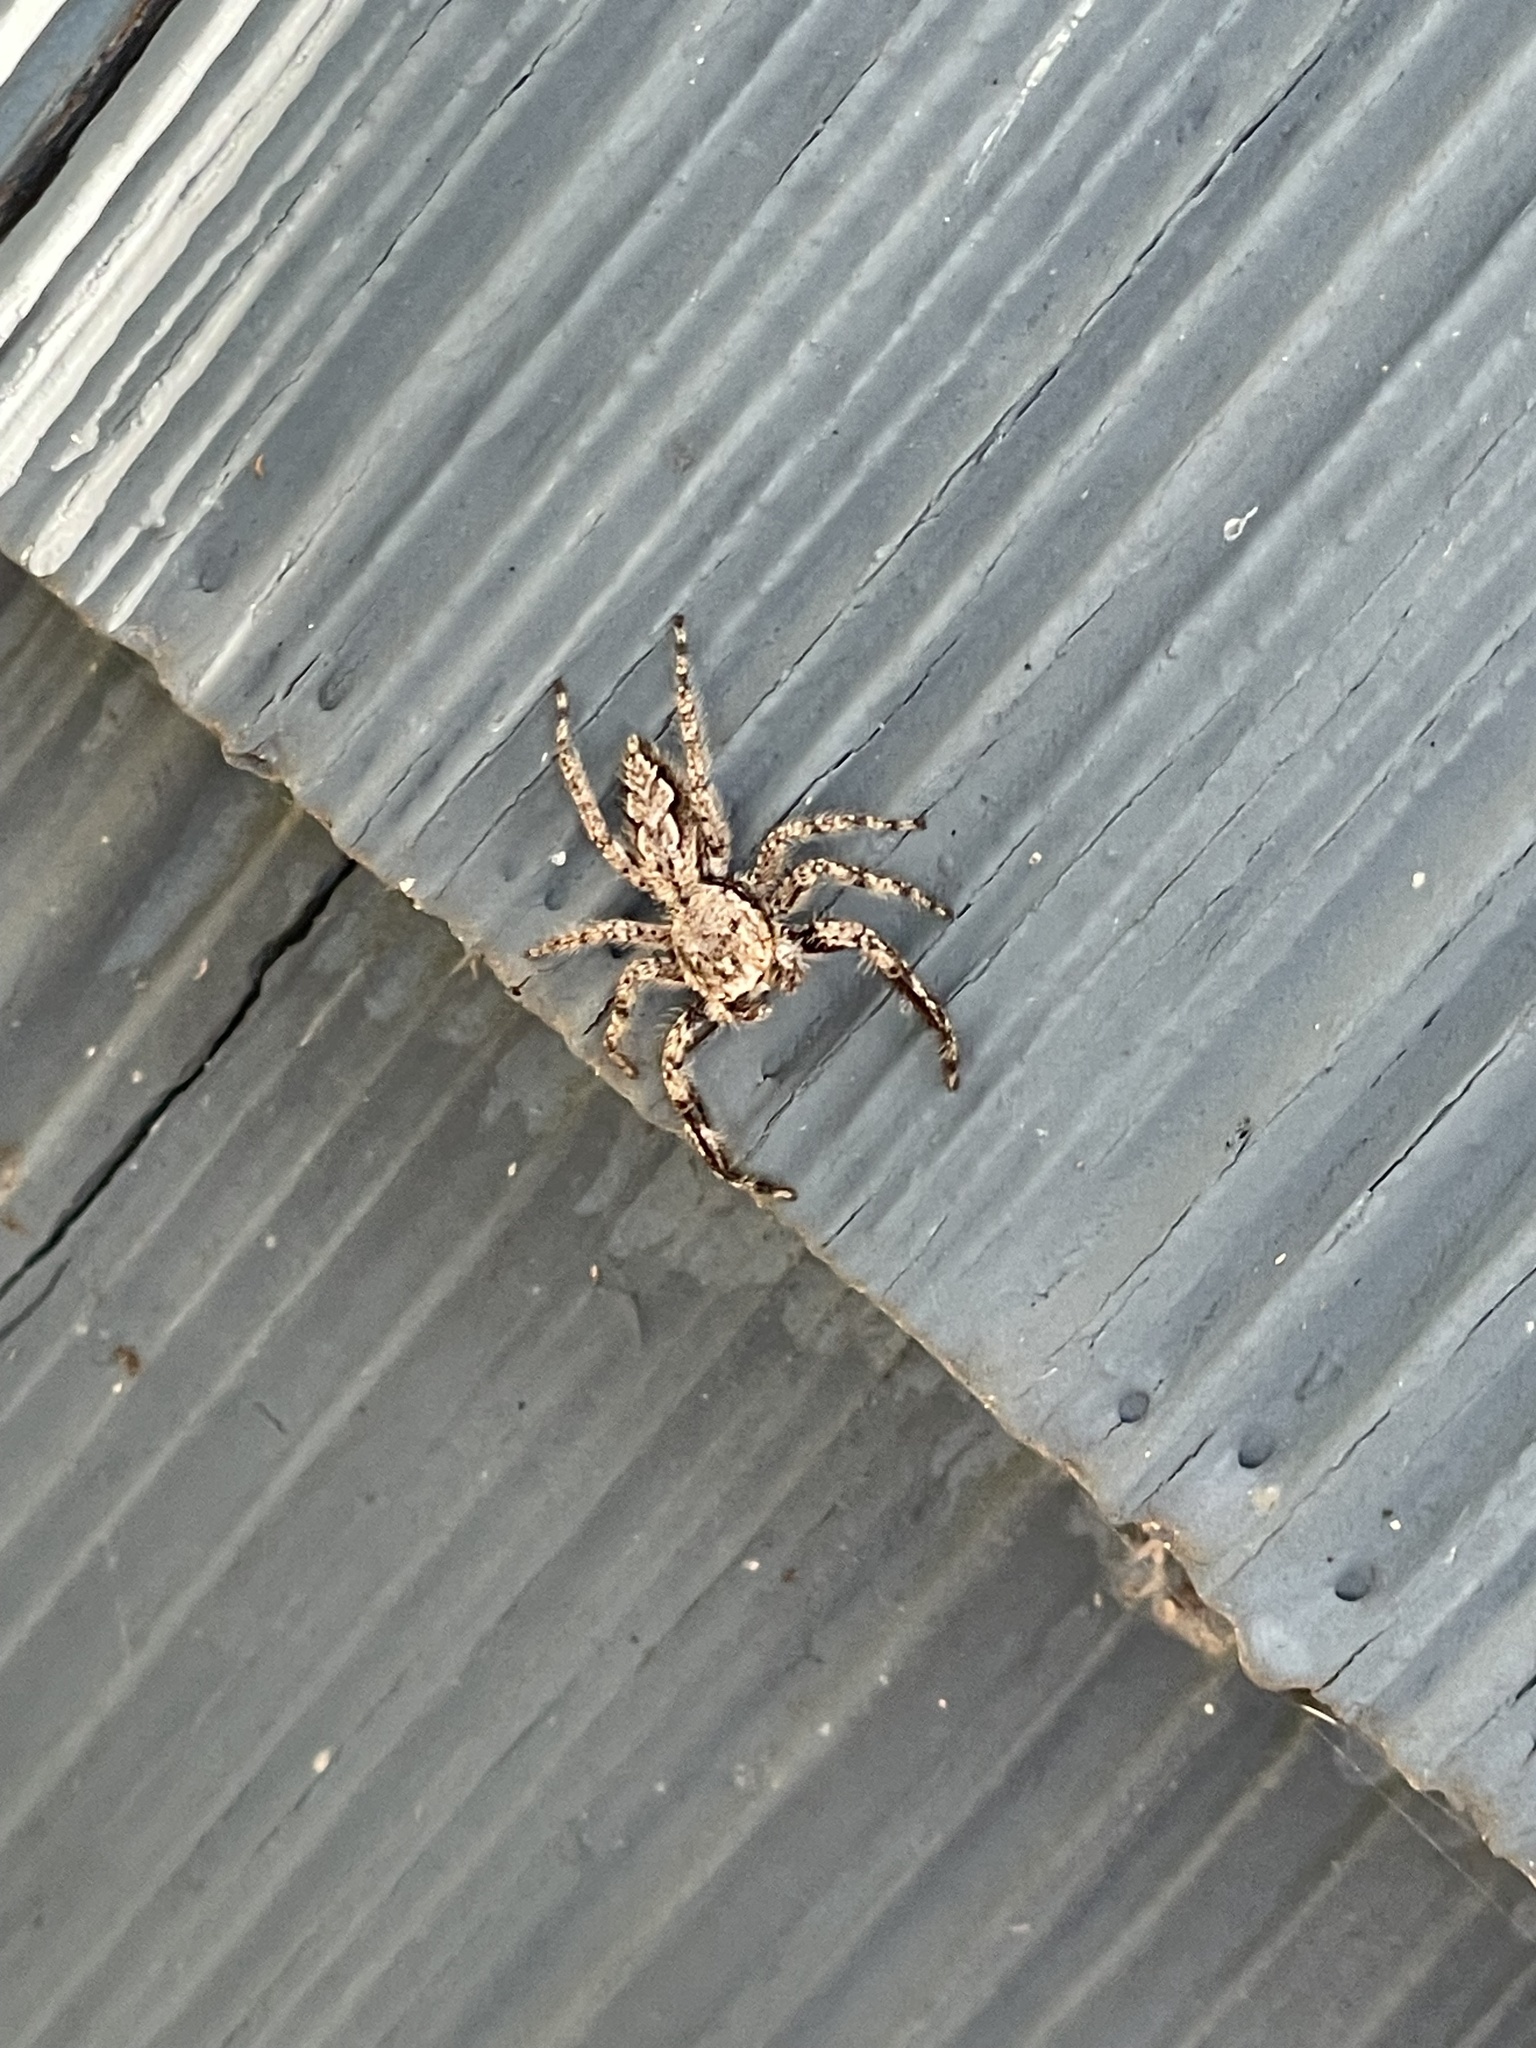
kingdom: Animalia
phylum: Arthropoda
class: Arachnida
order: Araneae
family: Salticidae
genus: Platycryptus
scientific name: Platycryptus undatus
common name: Tan jumping spider
